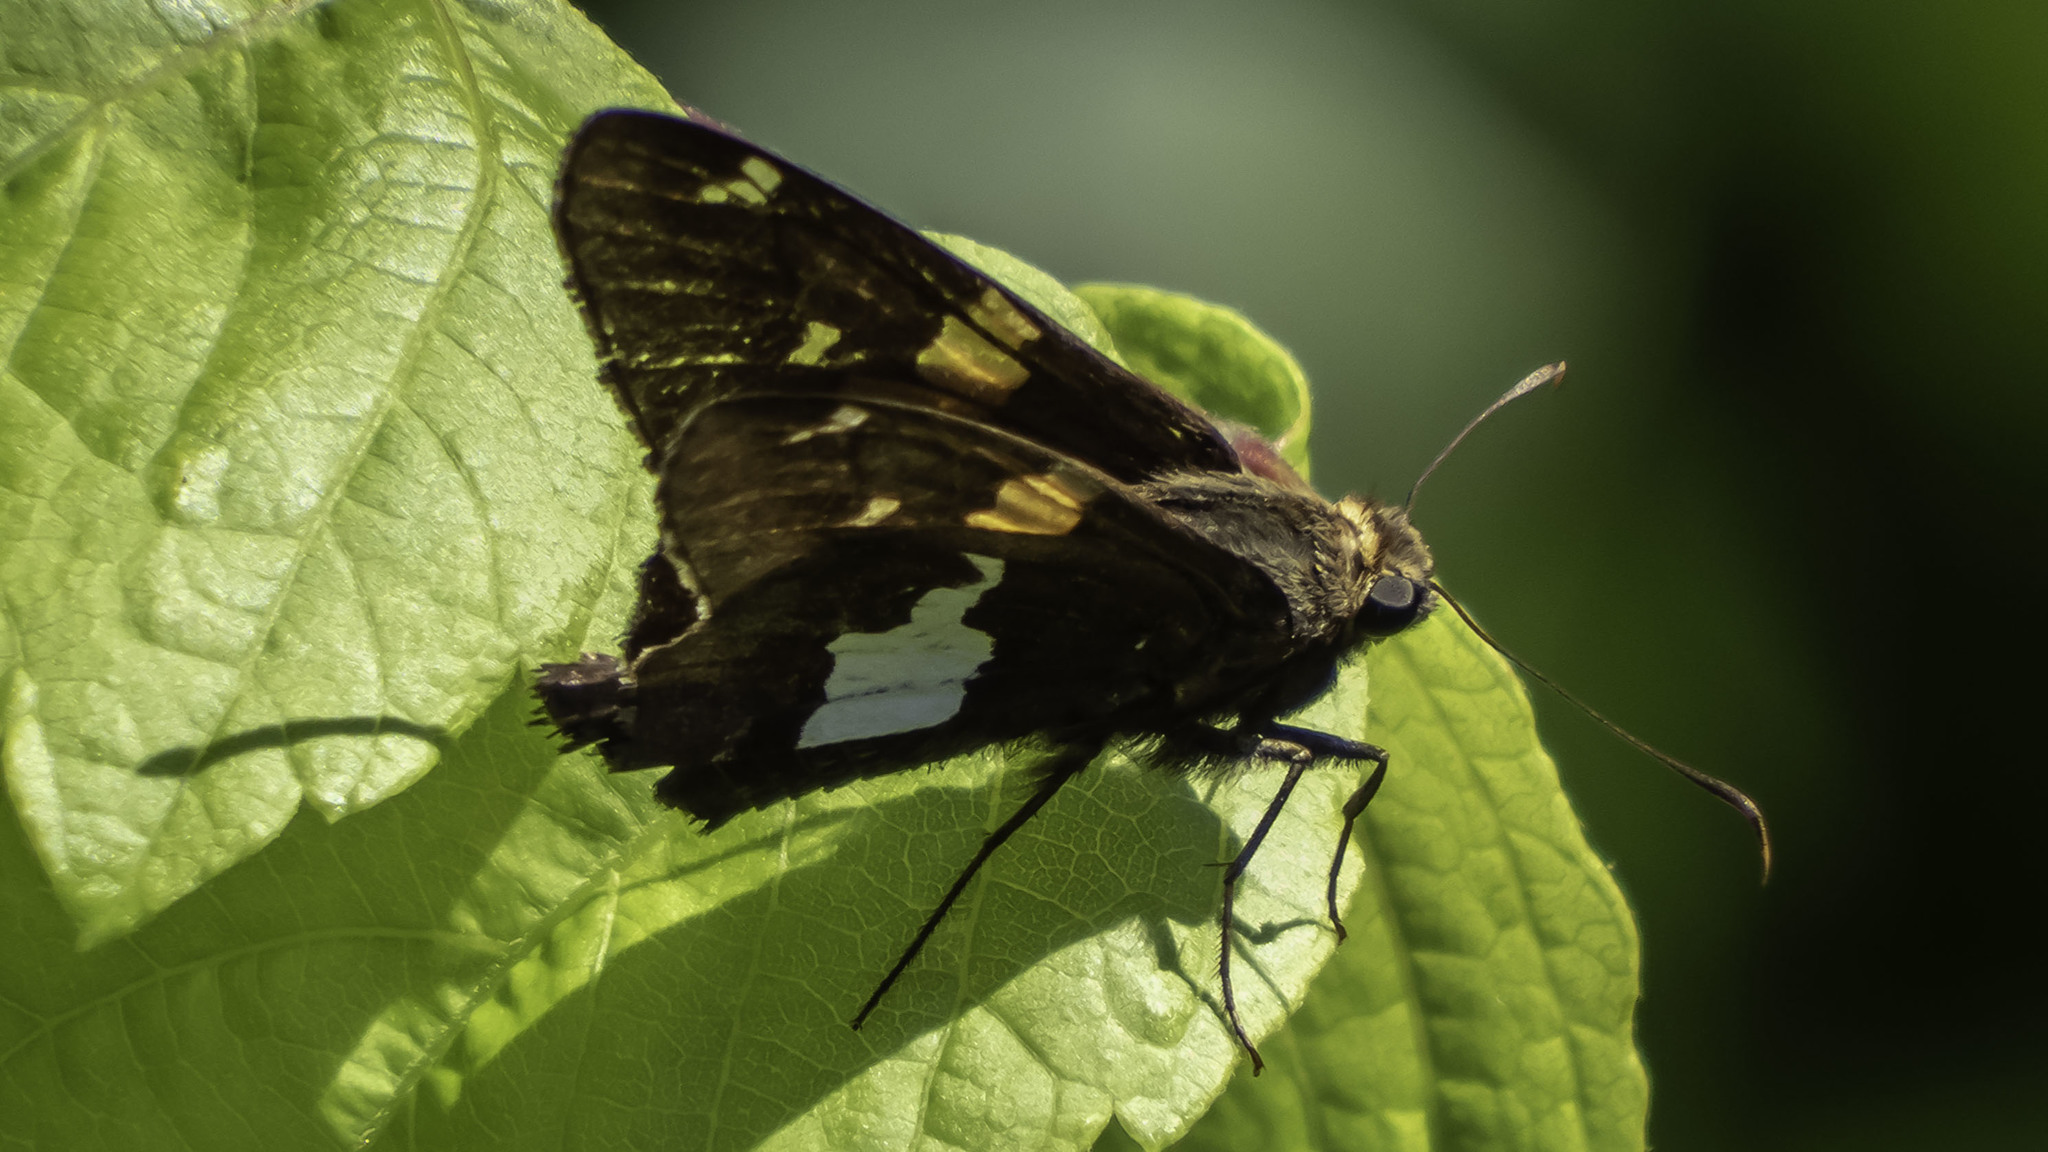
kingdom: Animalia
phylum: Arthropoda
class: Insecta
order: Lepidoptera
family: Hesperiidae
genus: Epargyreus
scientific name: Epargyreus clarus
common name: Silver-spotted skipper
